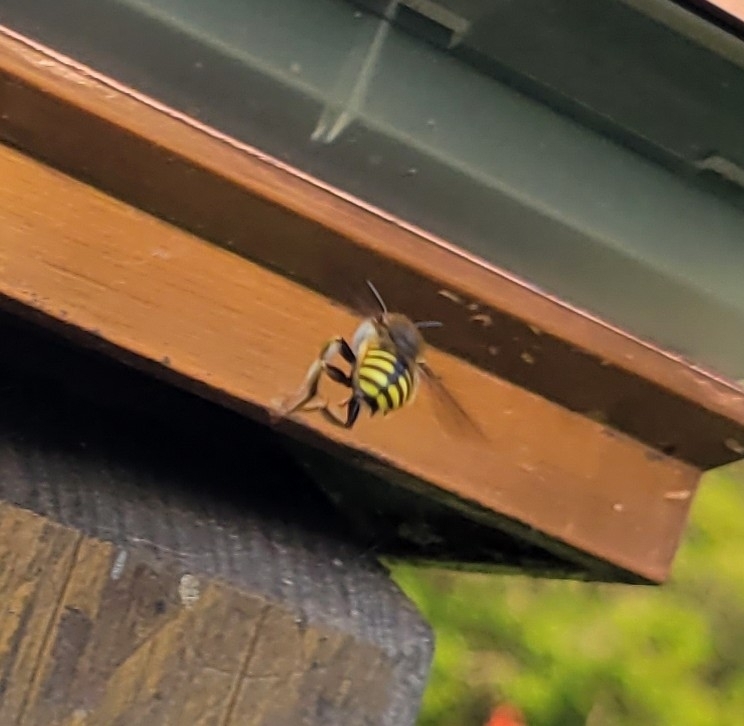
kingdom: Animalia
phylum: Arthropoda
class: Insecta
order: Hymenoptera
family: Megachilidae
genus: Anthidium
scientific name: Anthidium manicatum
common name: Wool carder bee
